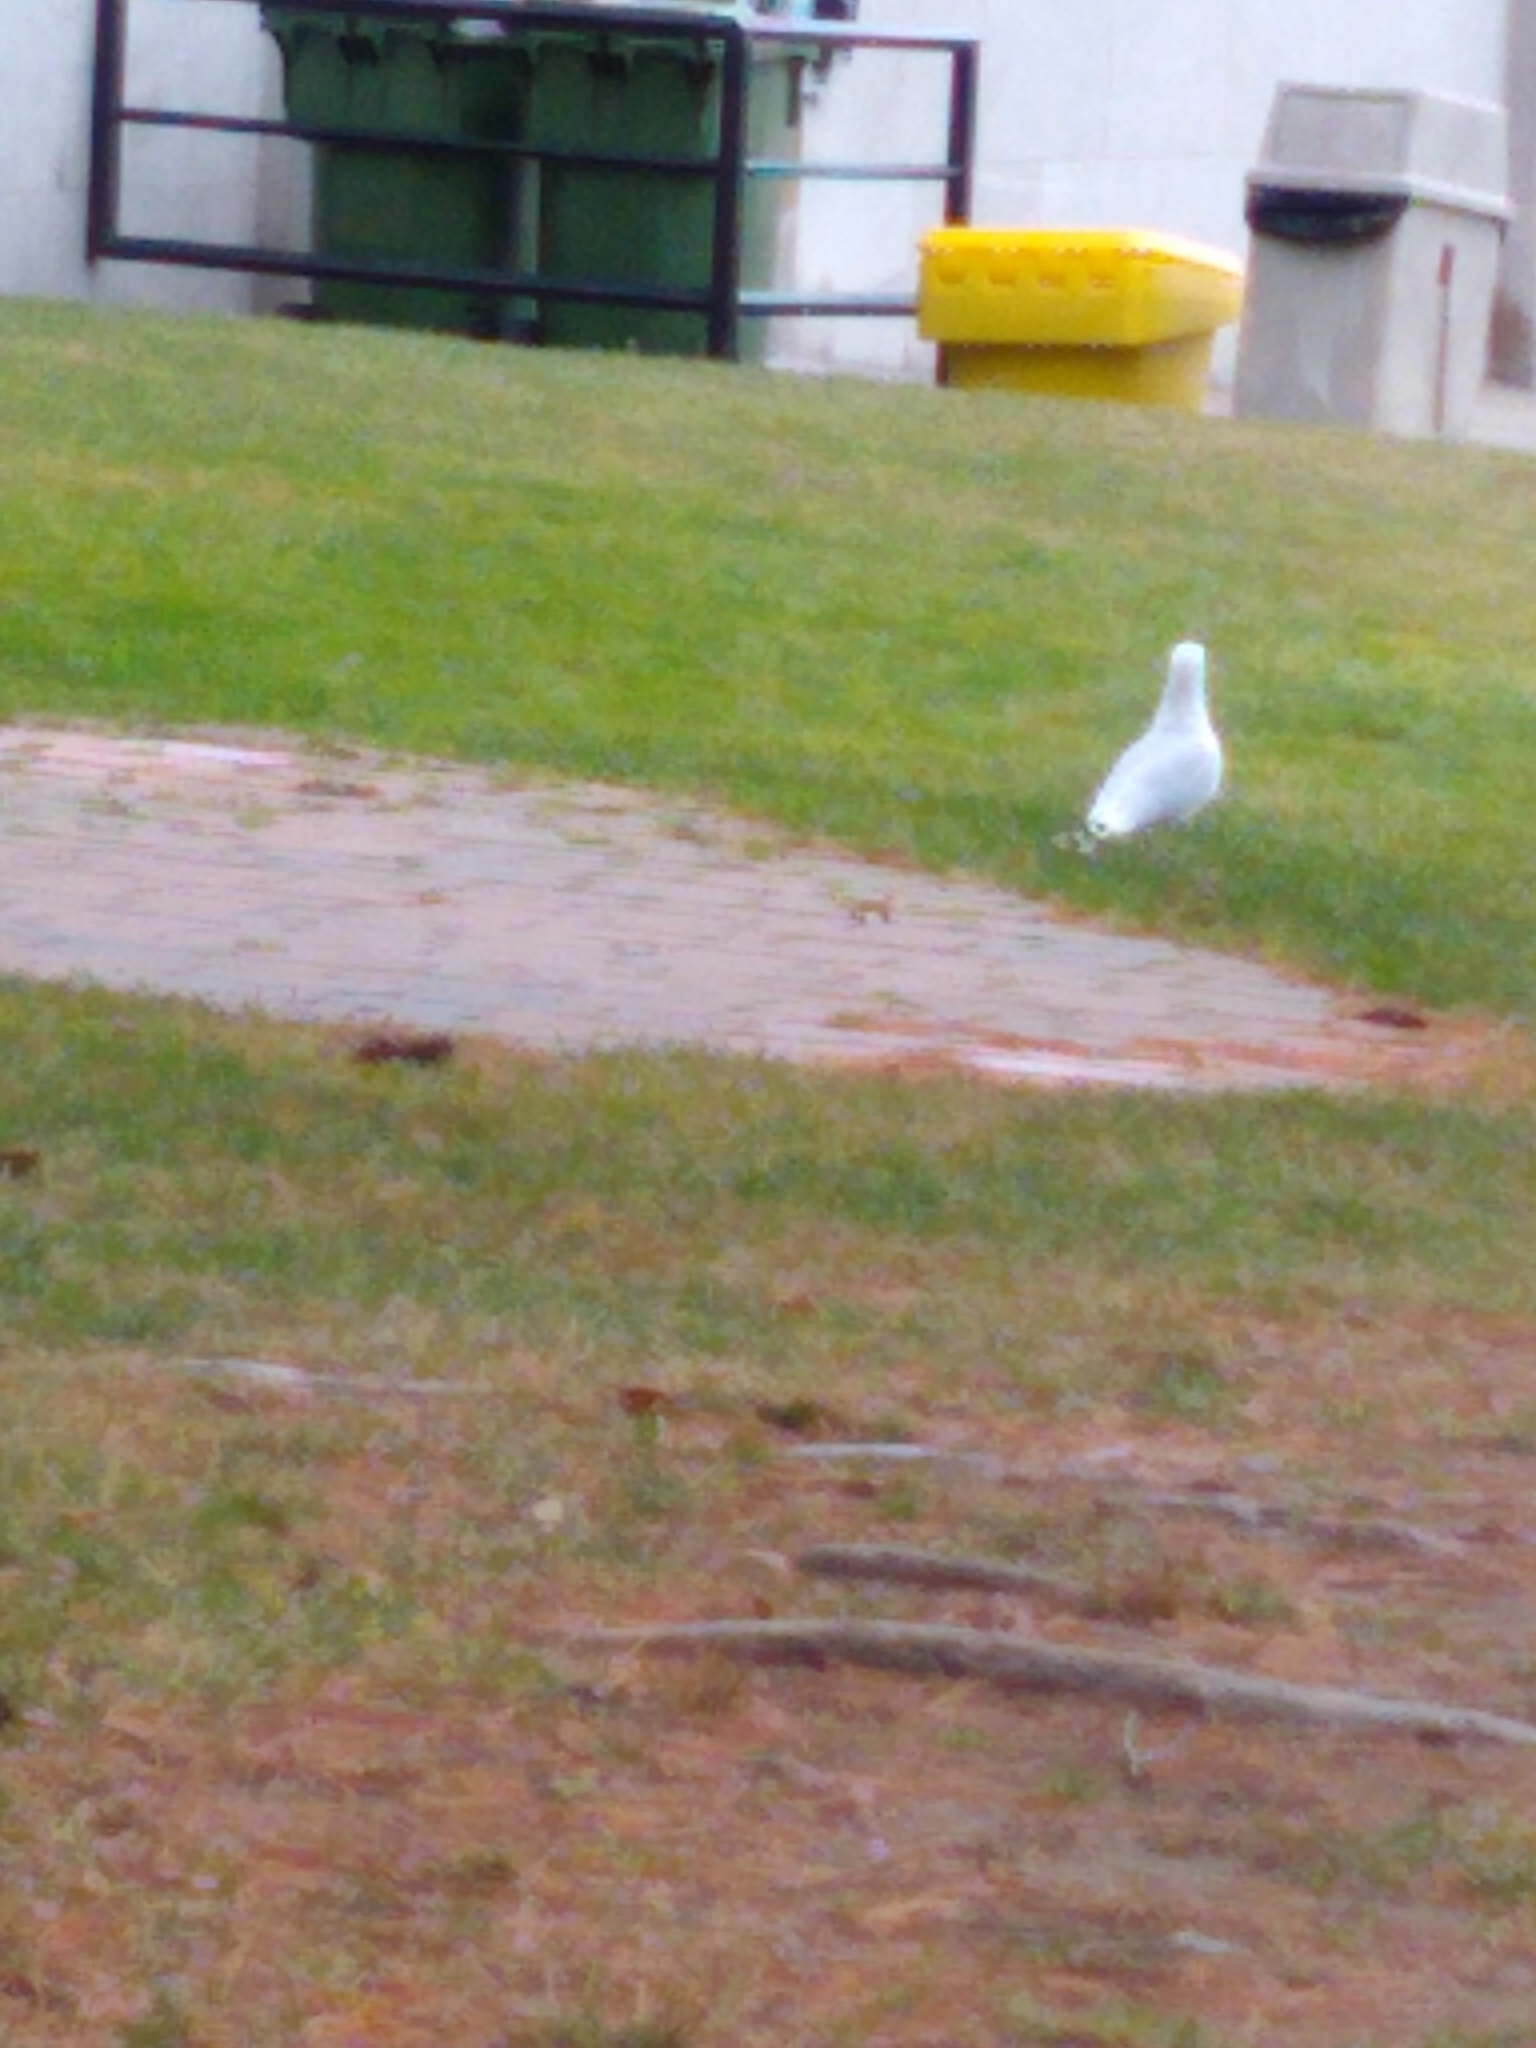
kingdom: Animalia
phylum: Chordata
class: Aves
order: Charadriiformes
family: Laridae
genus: Larus
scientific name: Larus delawarensis
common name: Ring-billed gull
